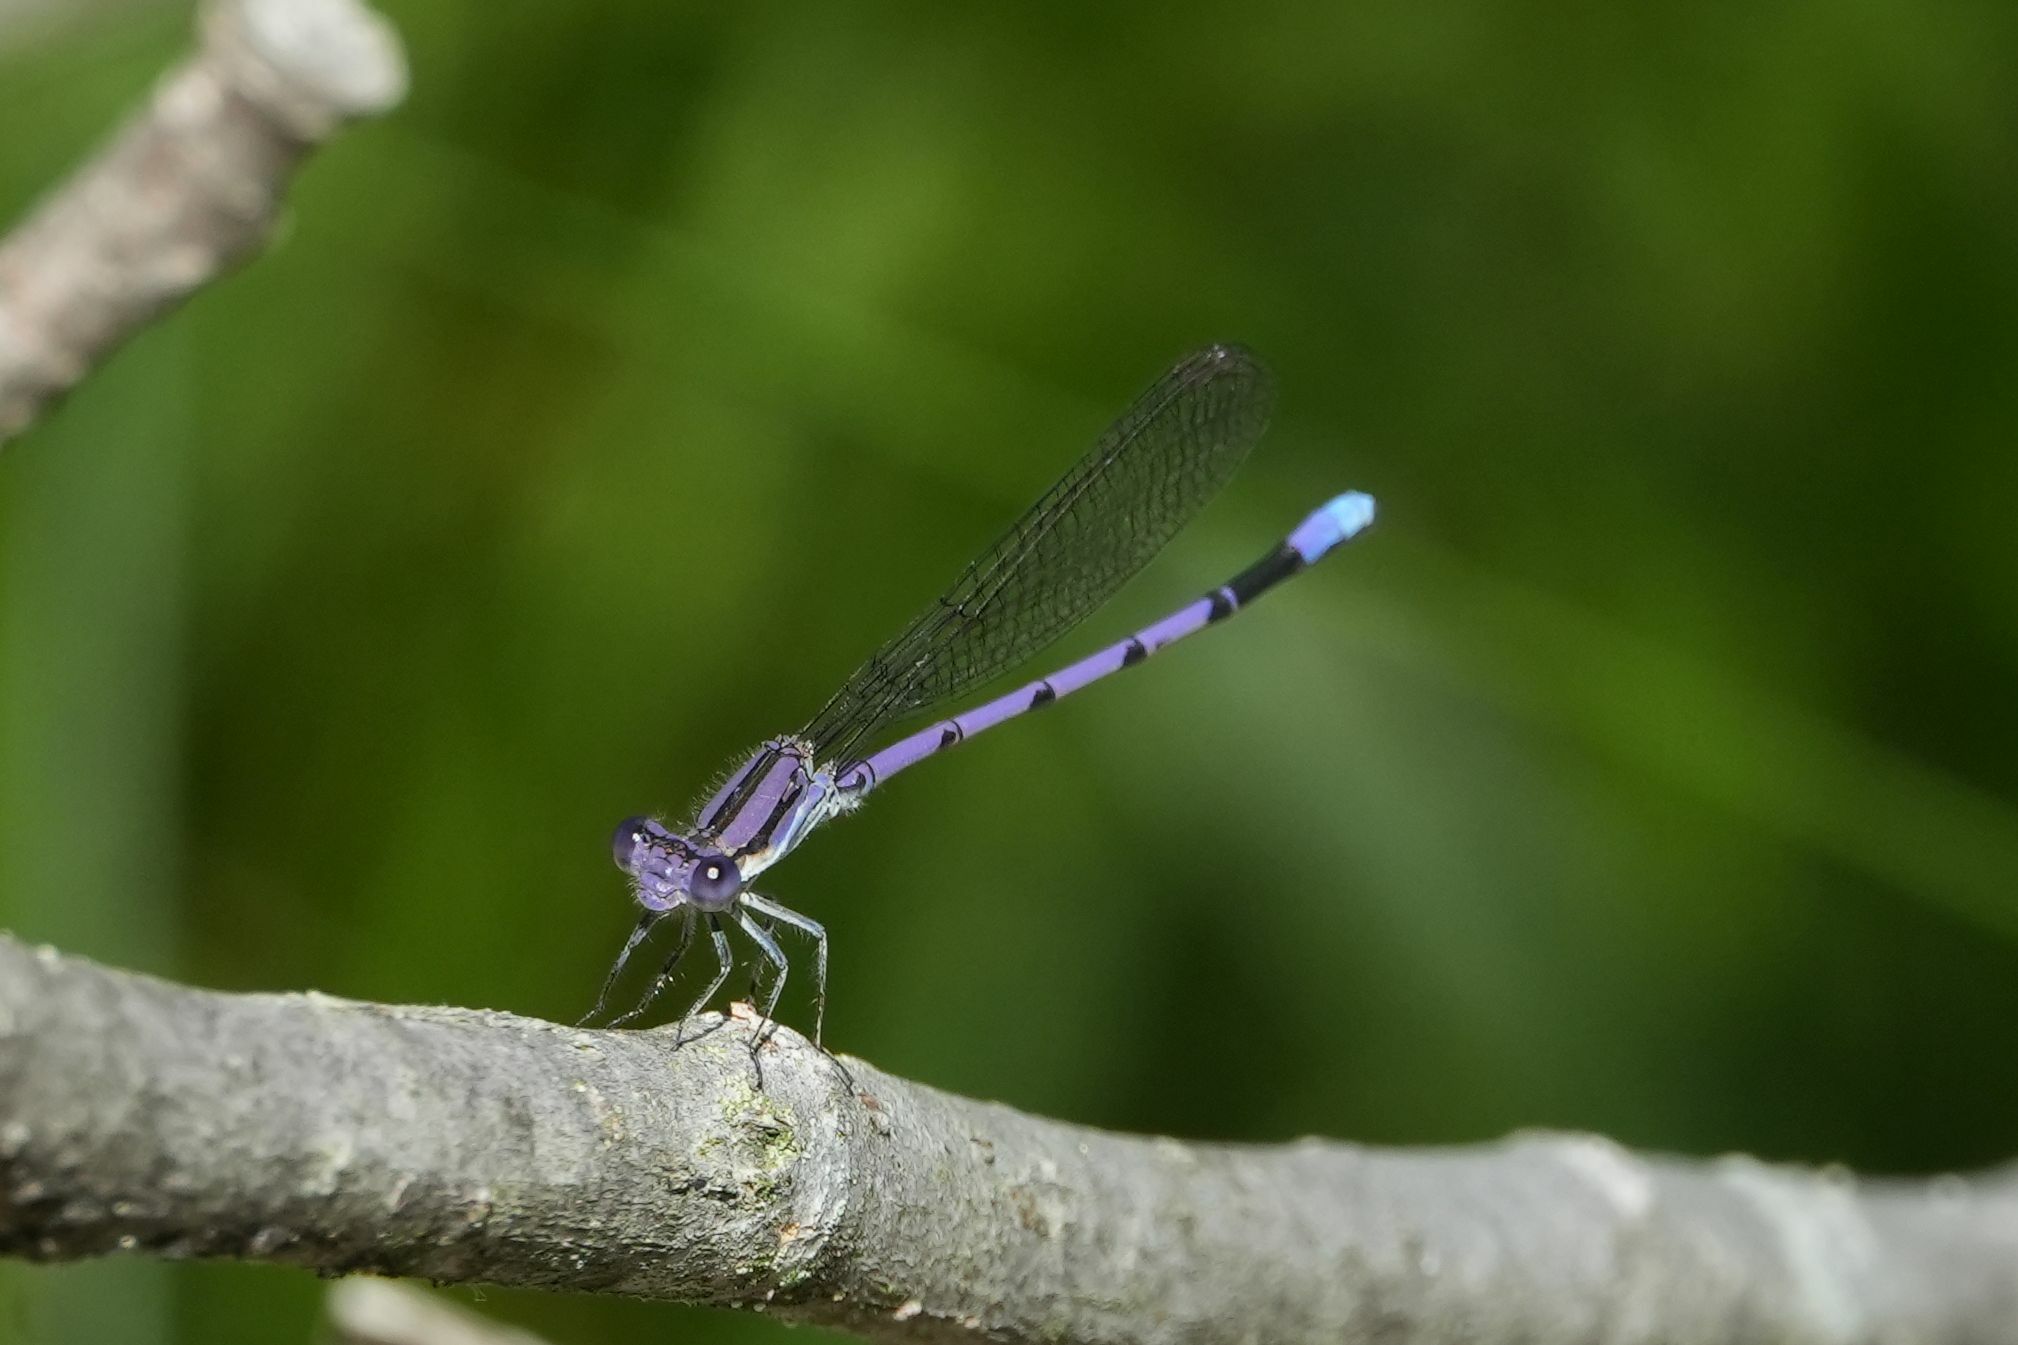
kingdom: Animalia
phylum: Arthropoda
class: Insecta
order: Odonata
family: Coenagrionidae
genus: Argia
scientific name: Argia fumipennis
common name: Variable dancer
